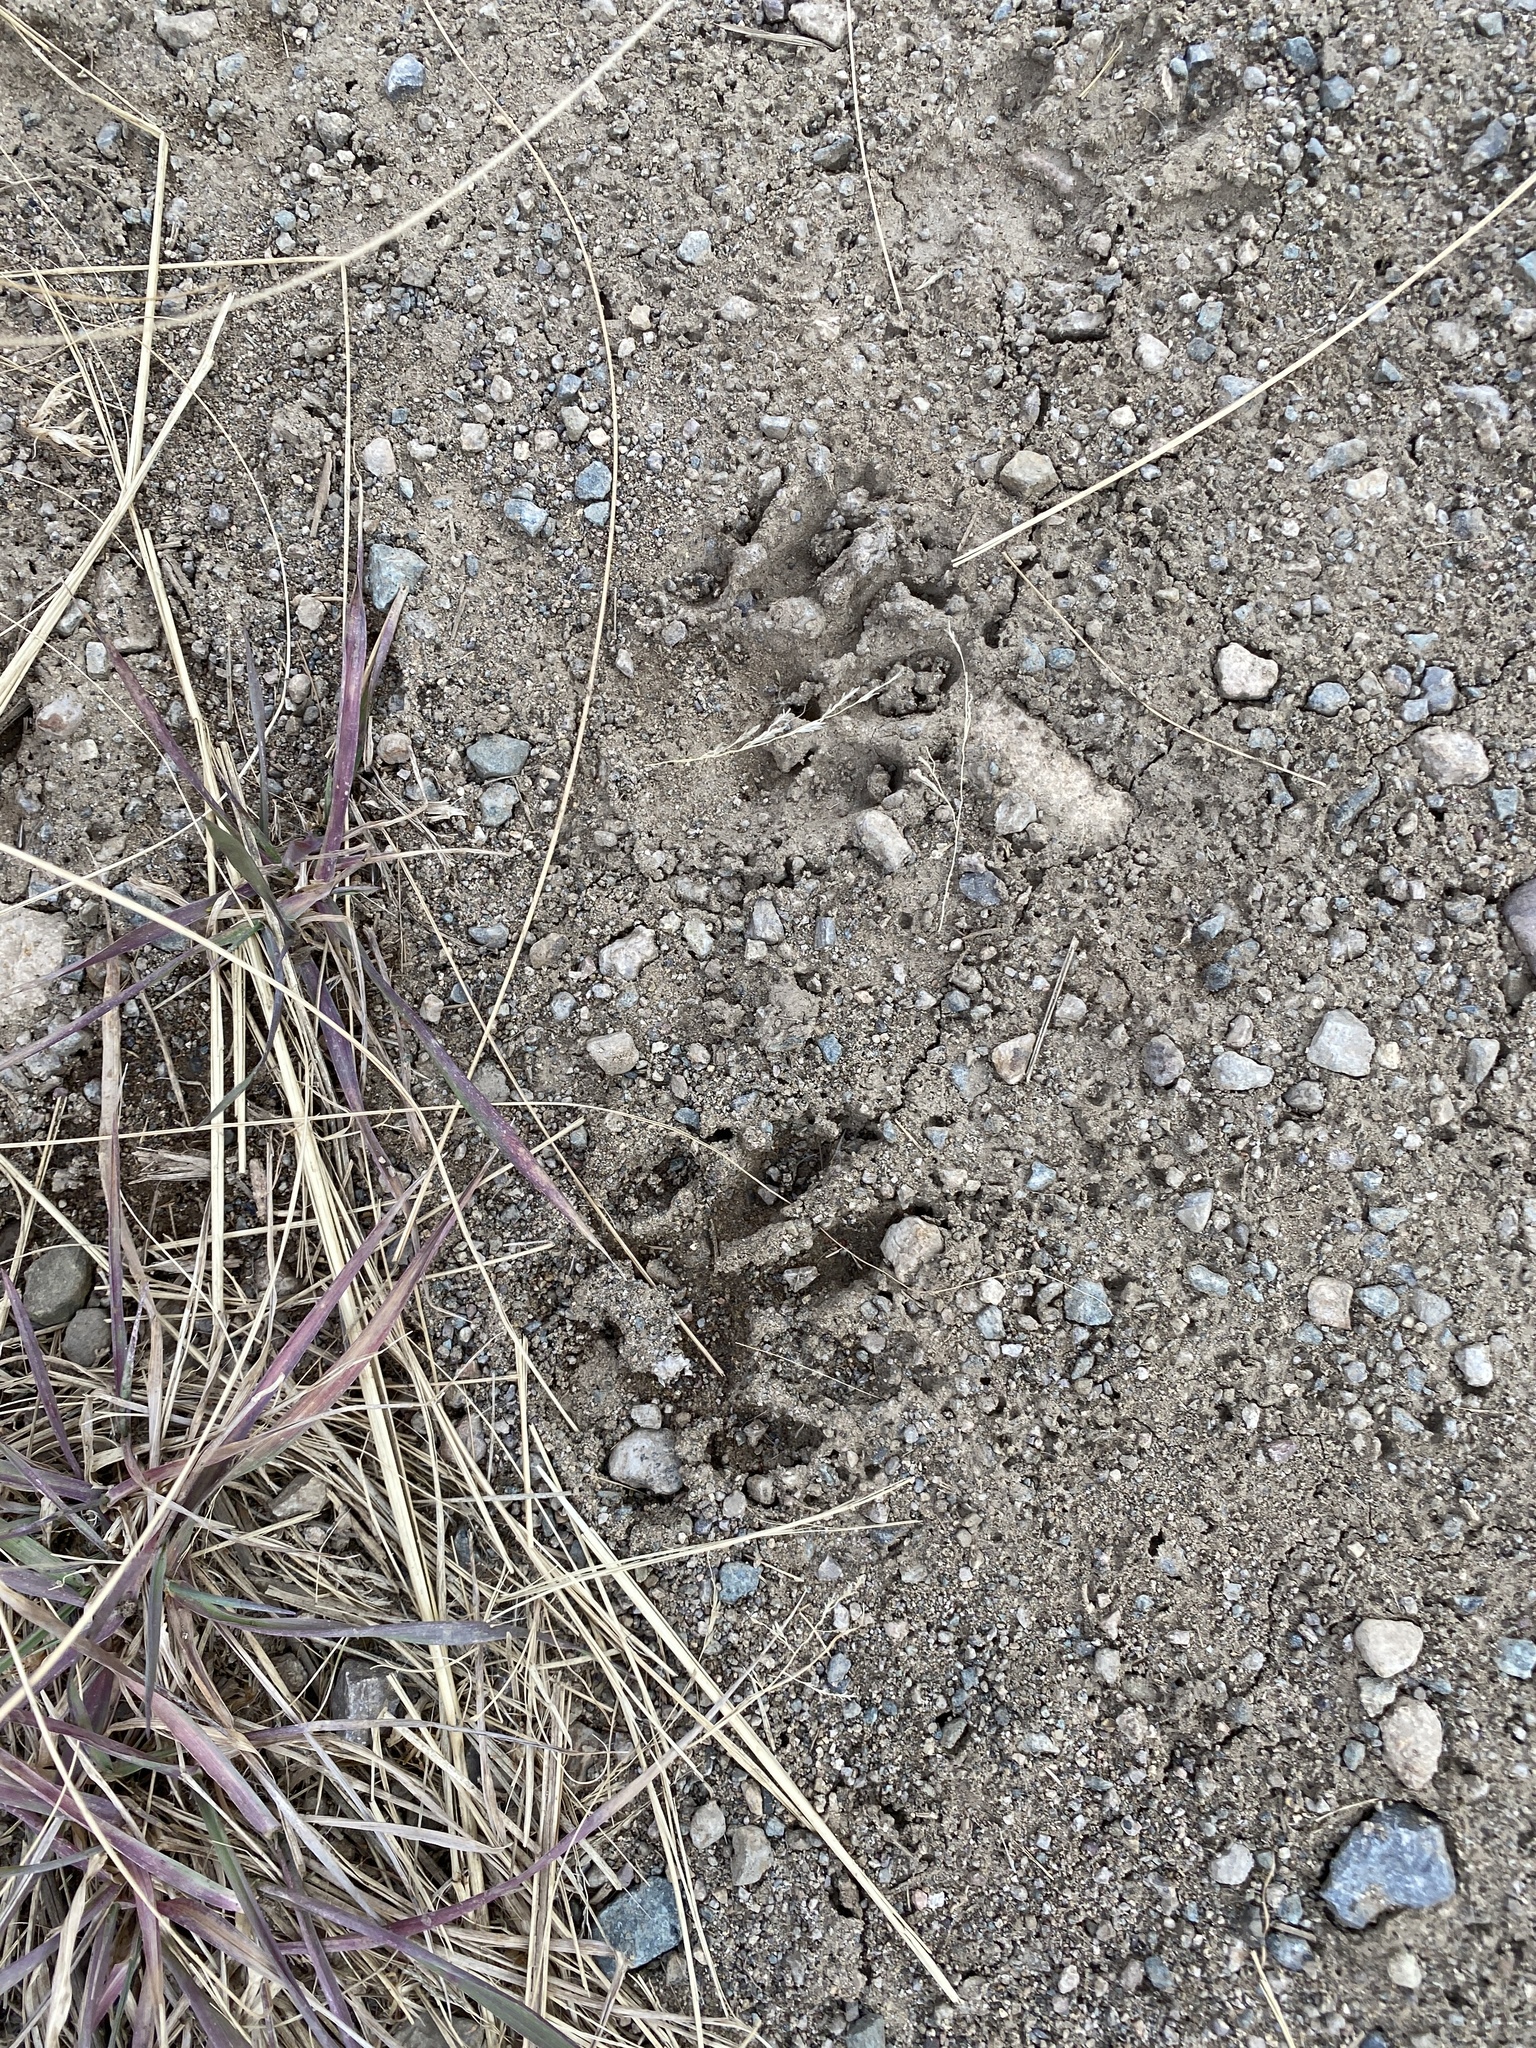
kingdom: Animalia
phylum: Chordata
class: Mammalia
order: Carnivora
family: Procyonidae
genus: Procyon
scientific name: Procyon lotor
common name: Raccoon
